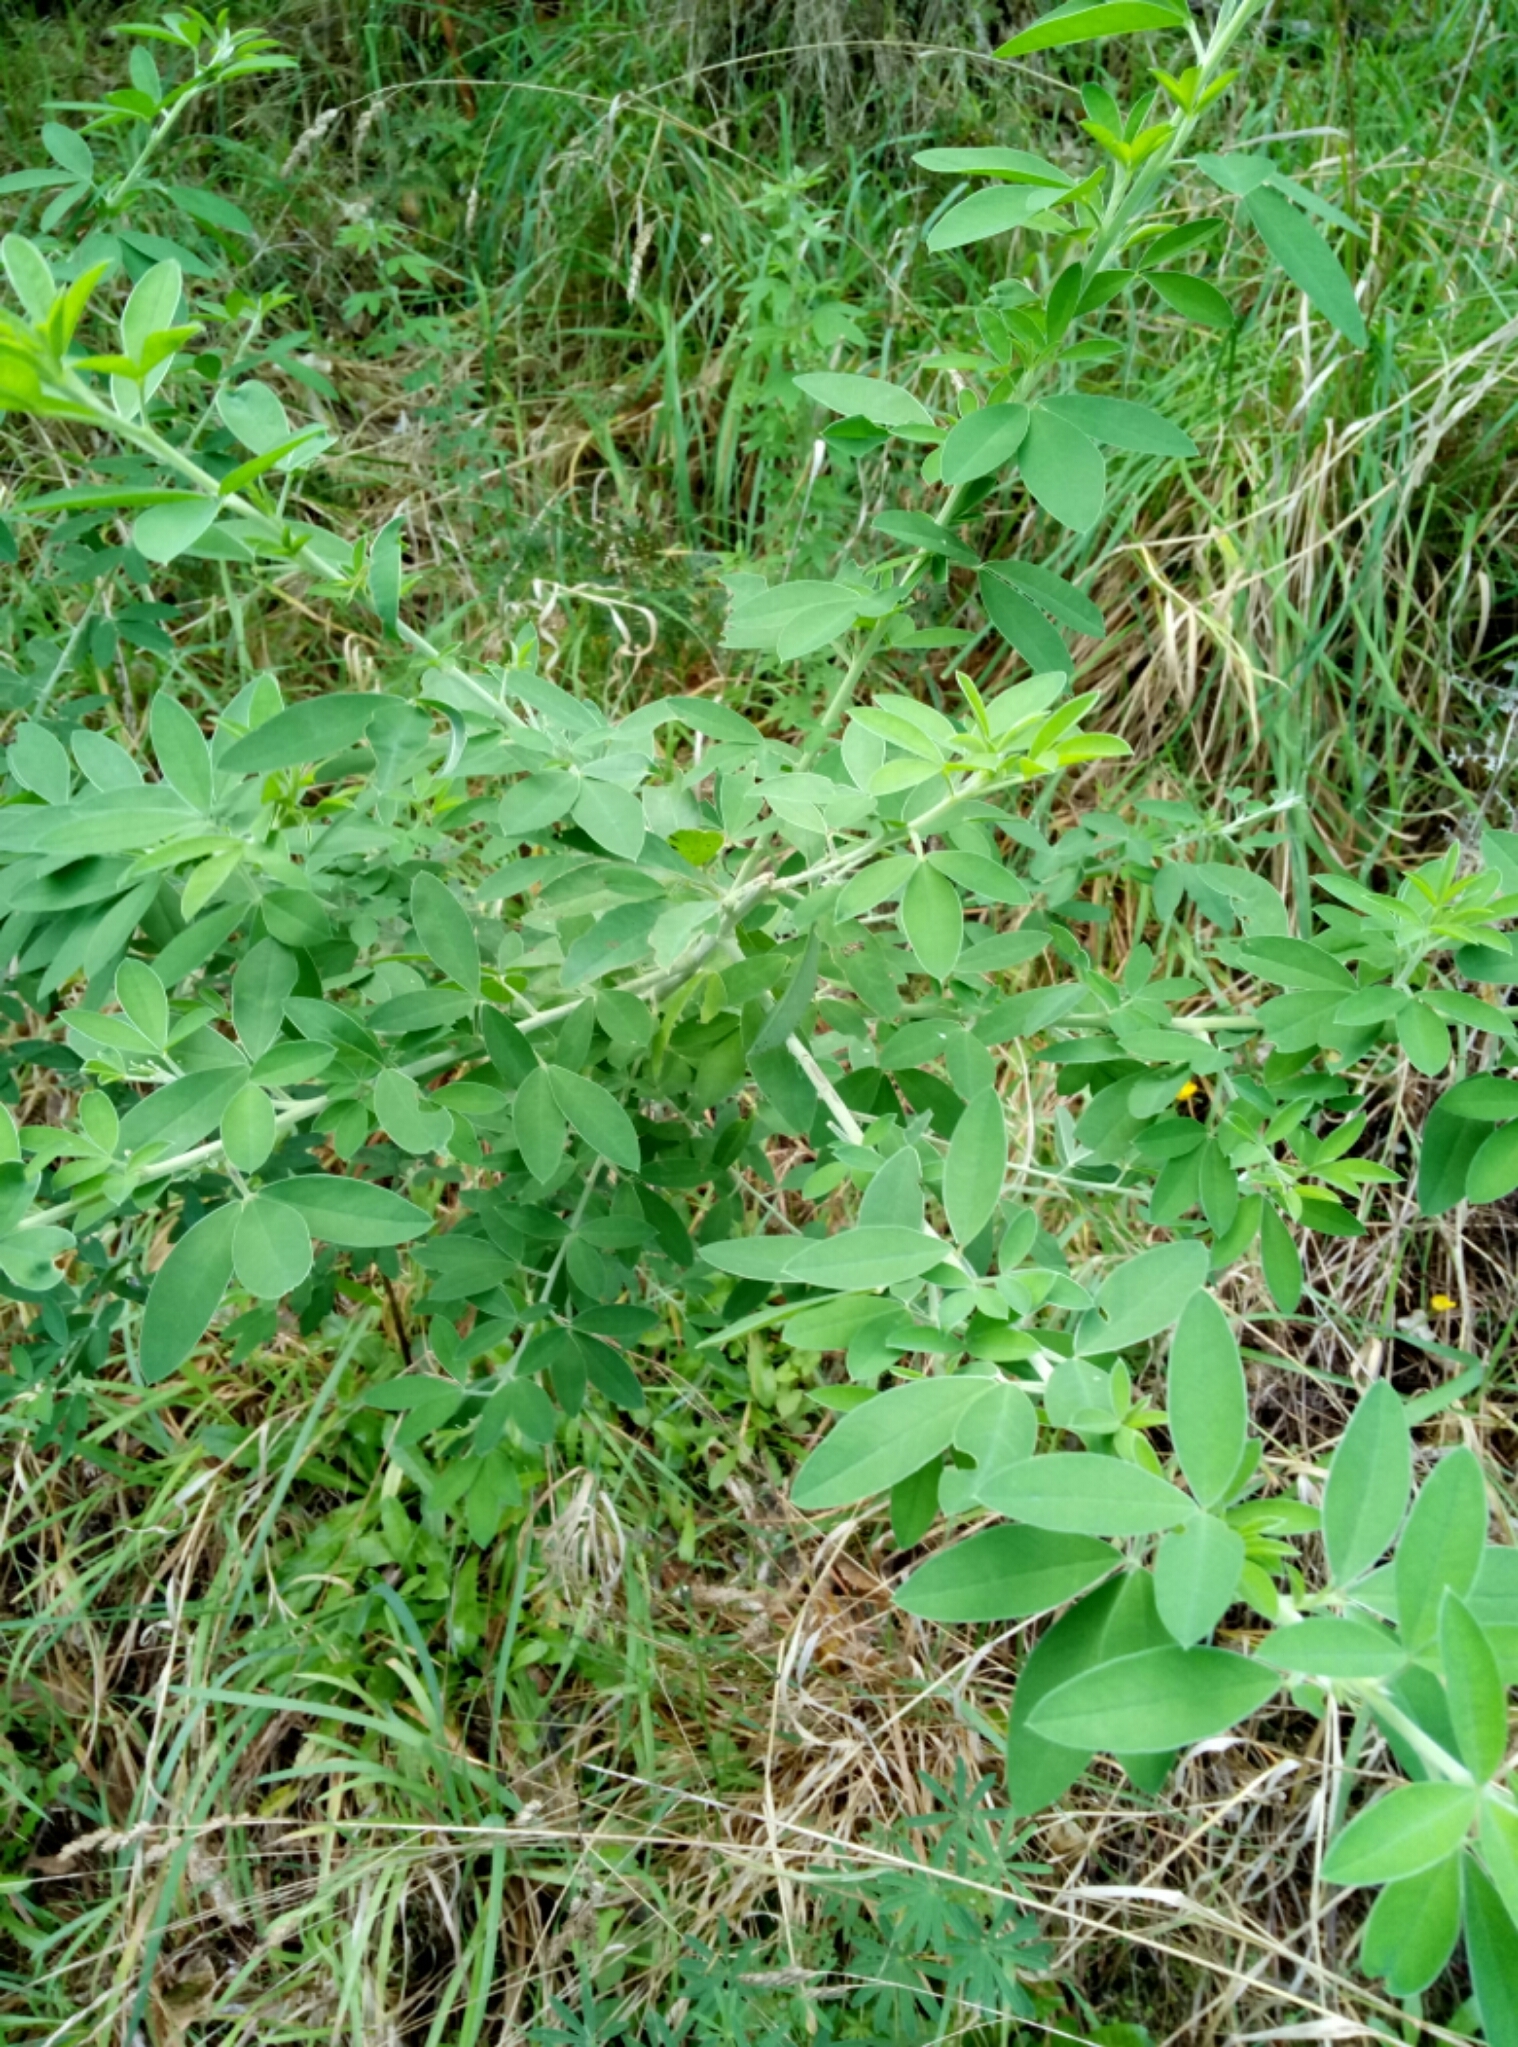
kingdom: Plantae
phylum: Tracheophyta
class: Magnoliopsida
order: Fabales
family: Fabaceae
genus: Chamaecytisus
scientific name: Chamaecytisus prolifer
